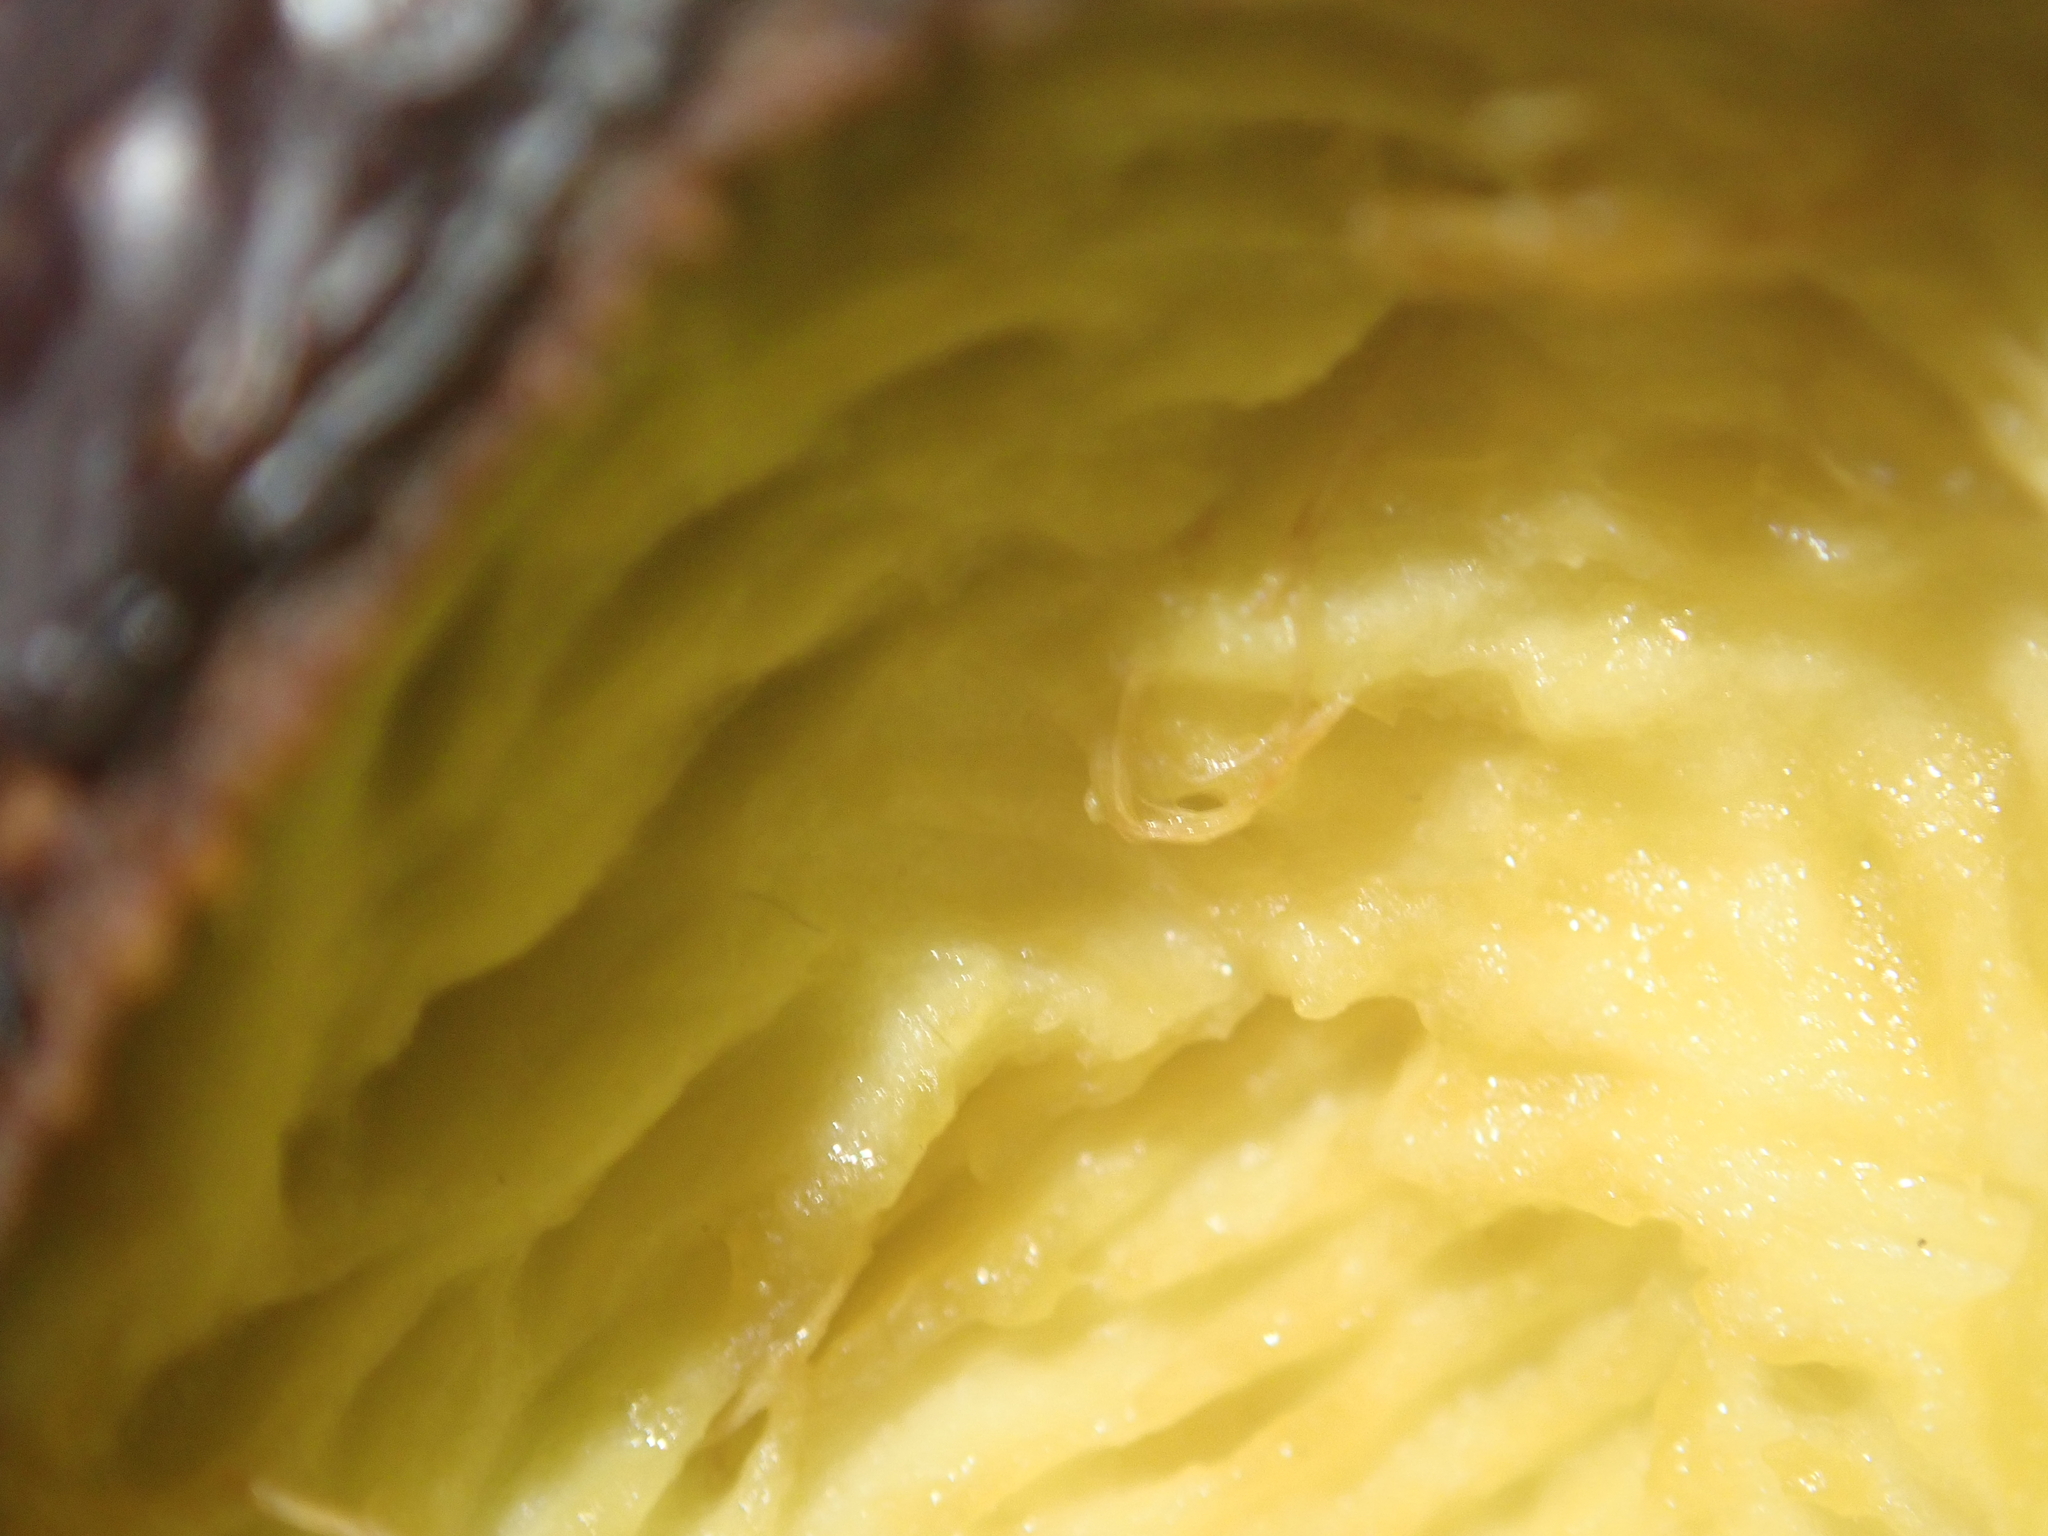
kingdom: Animalia
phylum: Chordata
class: Mammalia
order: Rodentia
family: Muridae
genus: Mus
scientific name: Mus musculus
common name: House mouse
